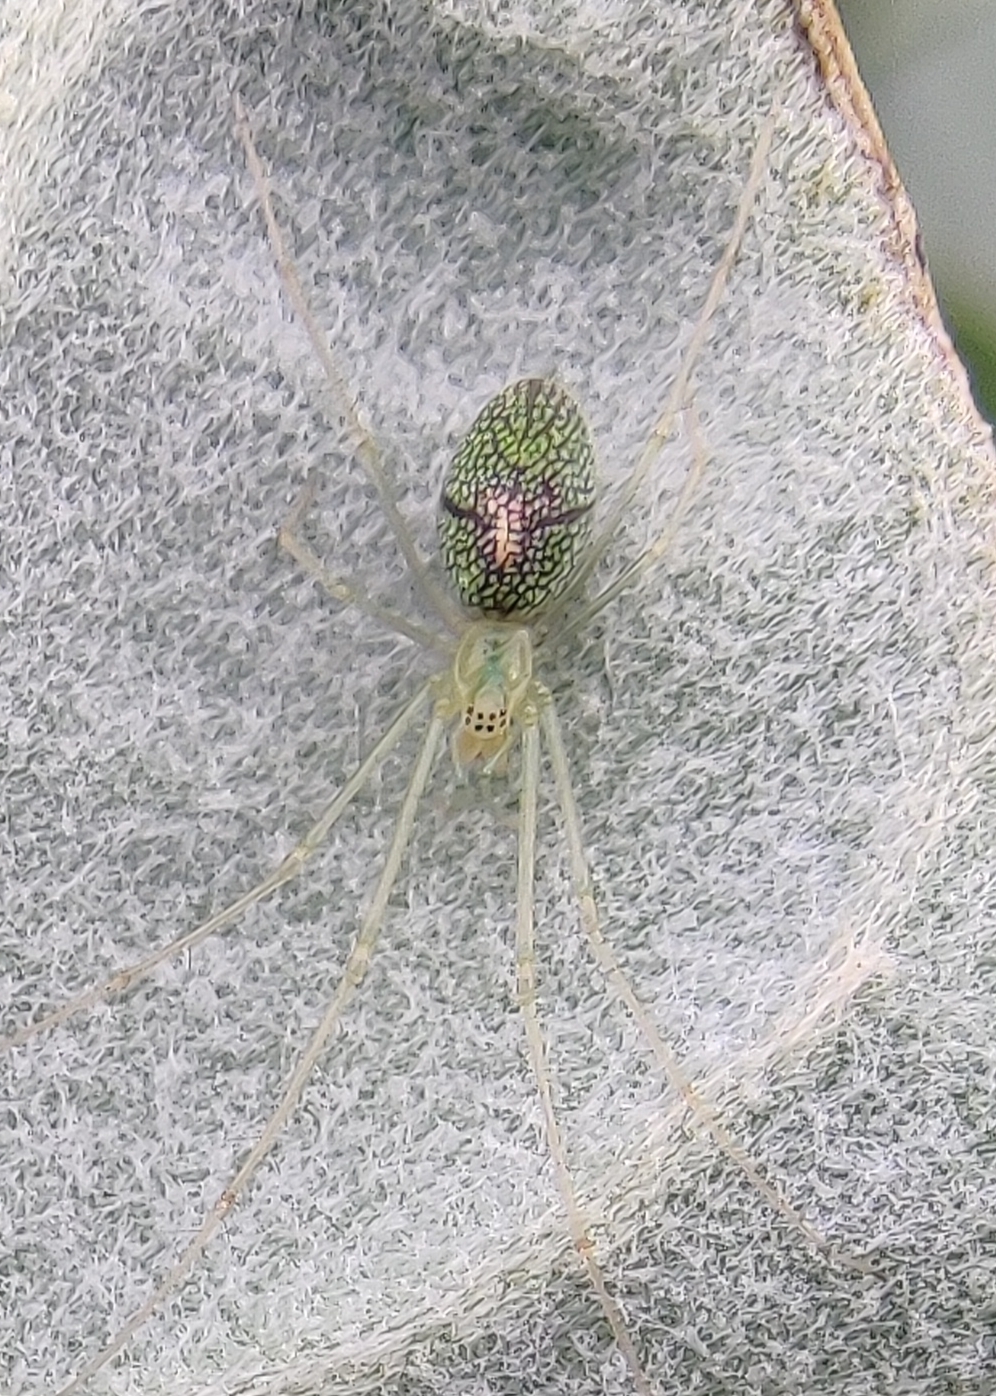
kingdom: Animalia
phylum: Arthropoda
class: Arachnida
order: Araneae
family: Tetragnathidae
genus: Tetragnatha
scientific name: Tetragnatha squamata
